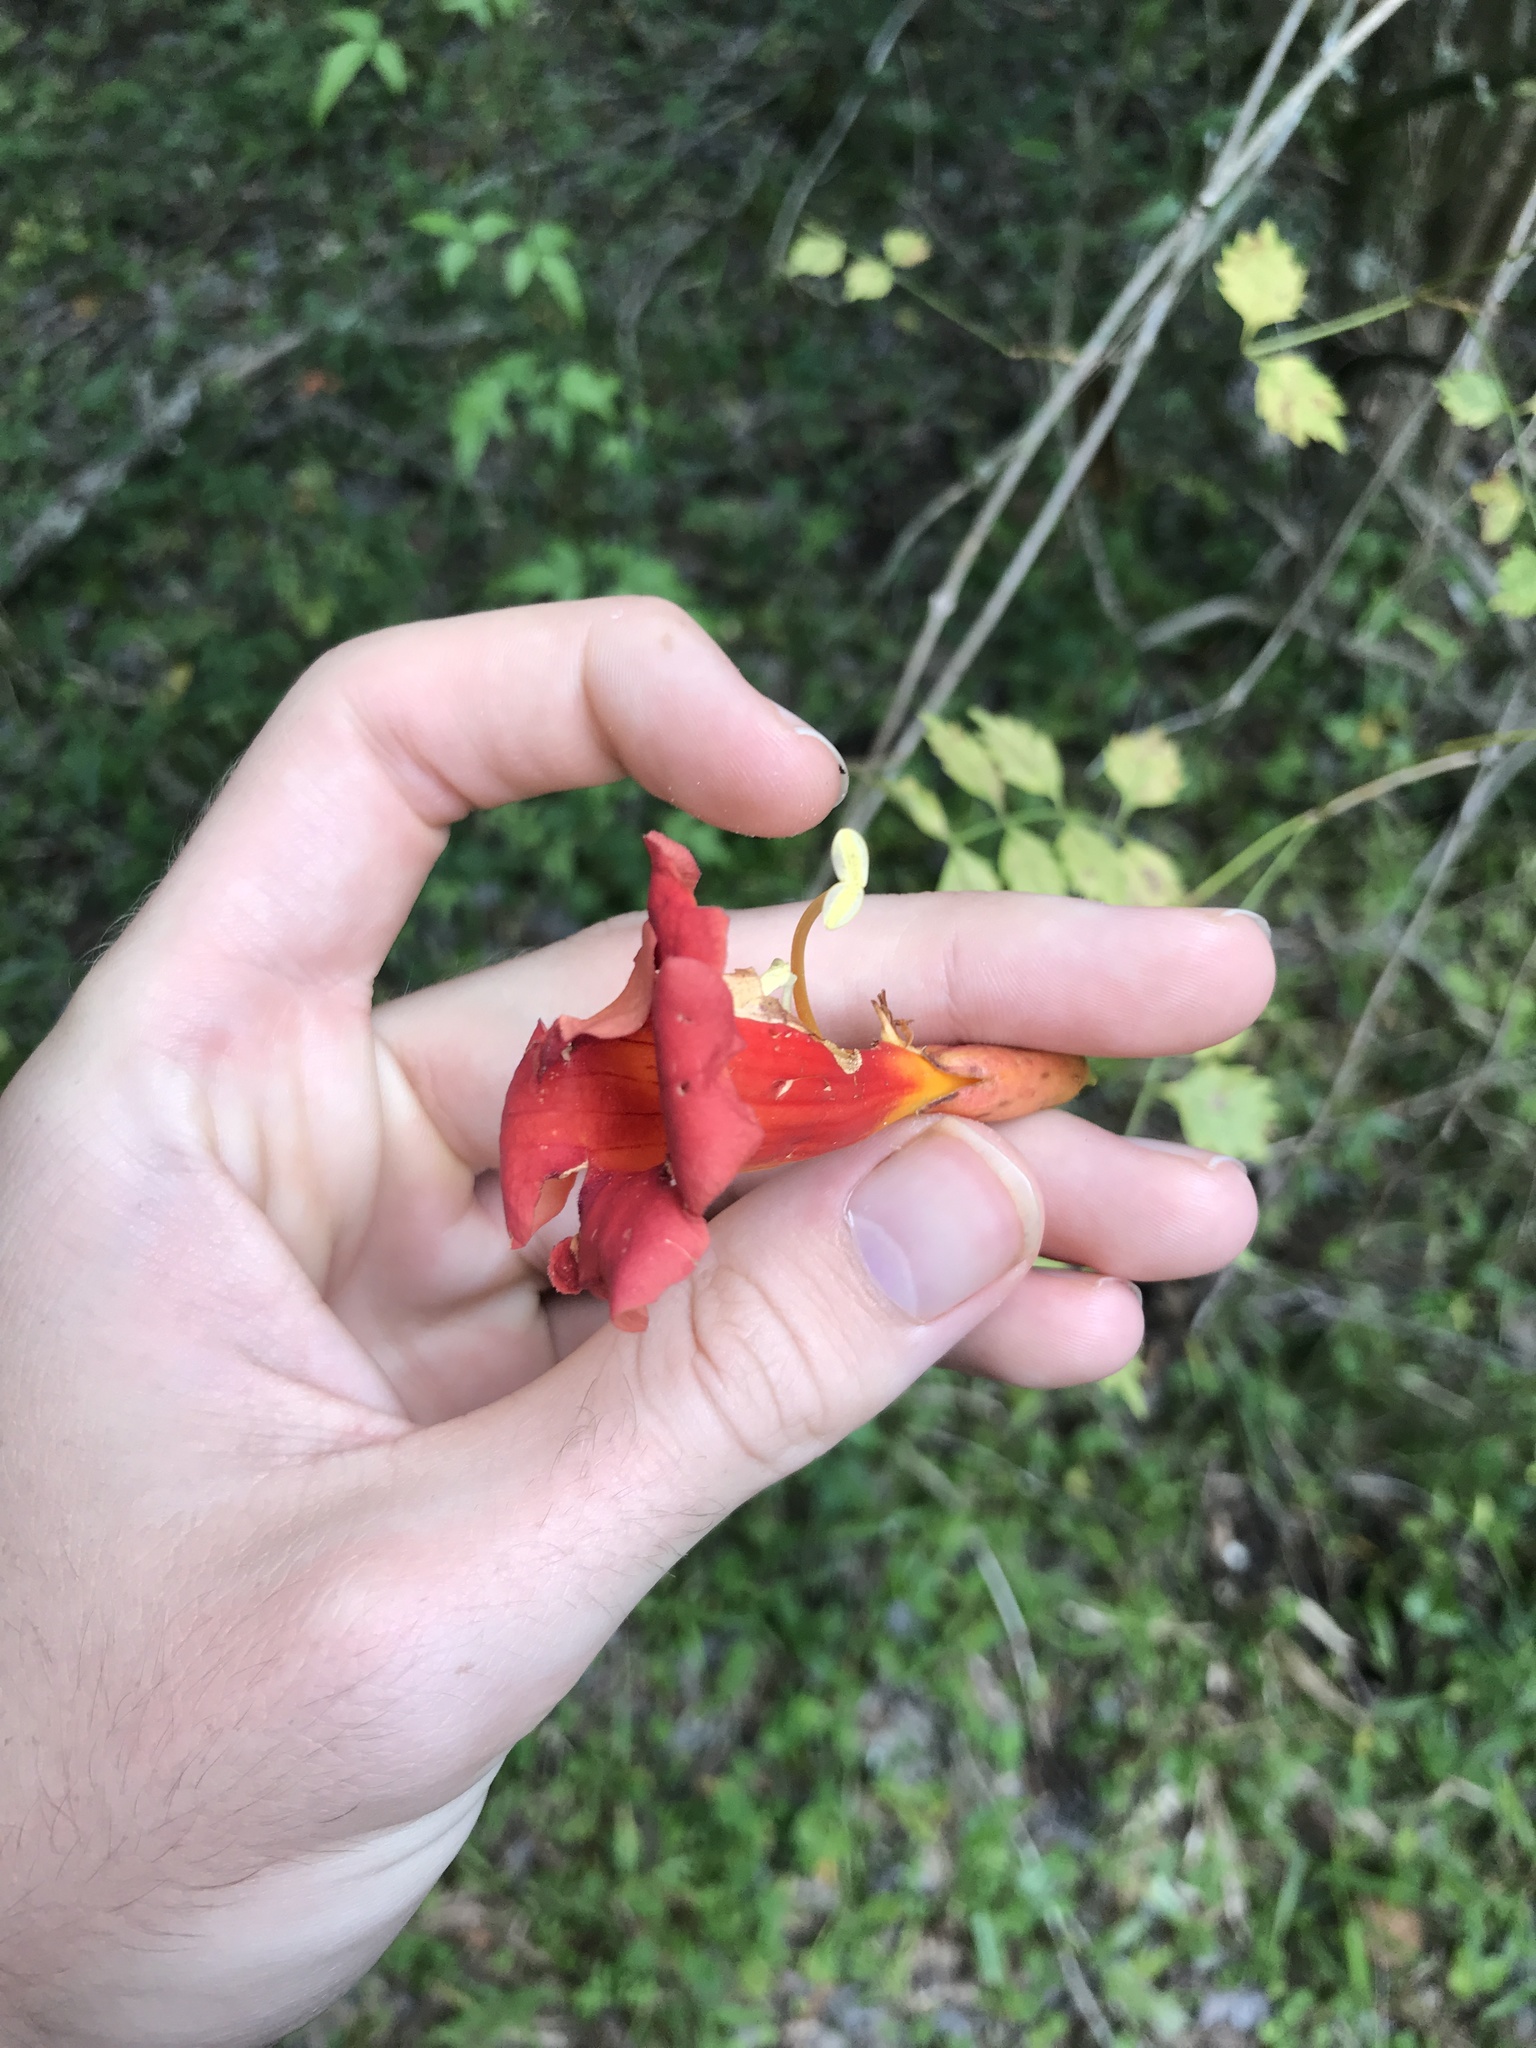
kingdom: Plantae
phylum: Tracheophyta
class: Magnoliopsida
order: Lamiales
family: Bignoniaceae
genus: Campsis
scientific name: Campsis radicans
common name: Trumpet-creeper
